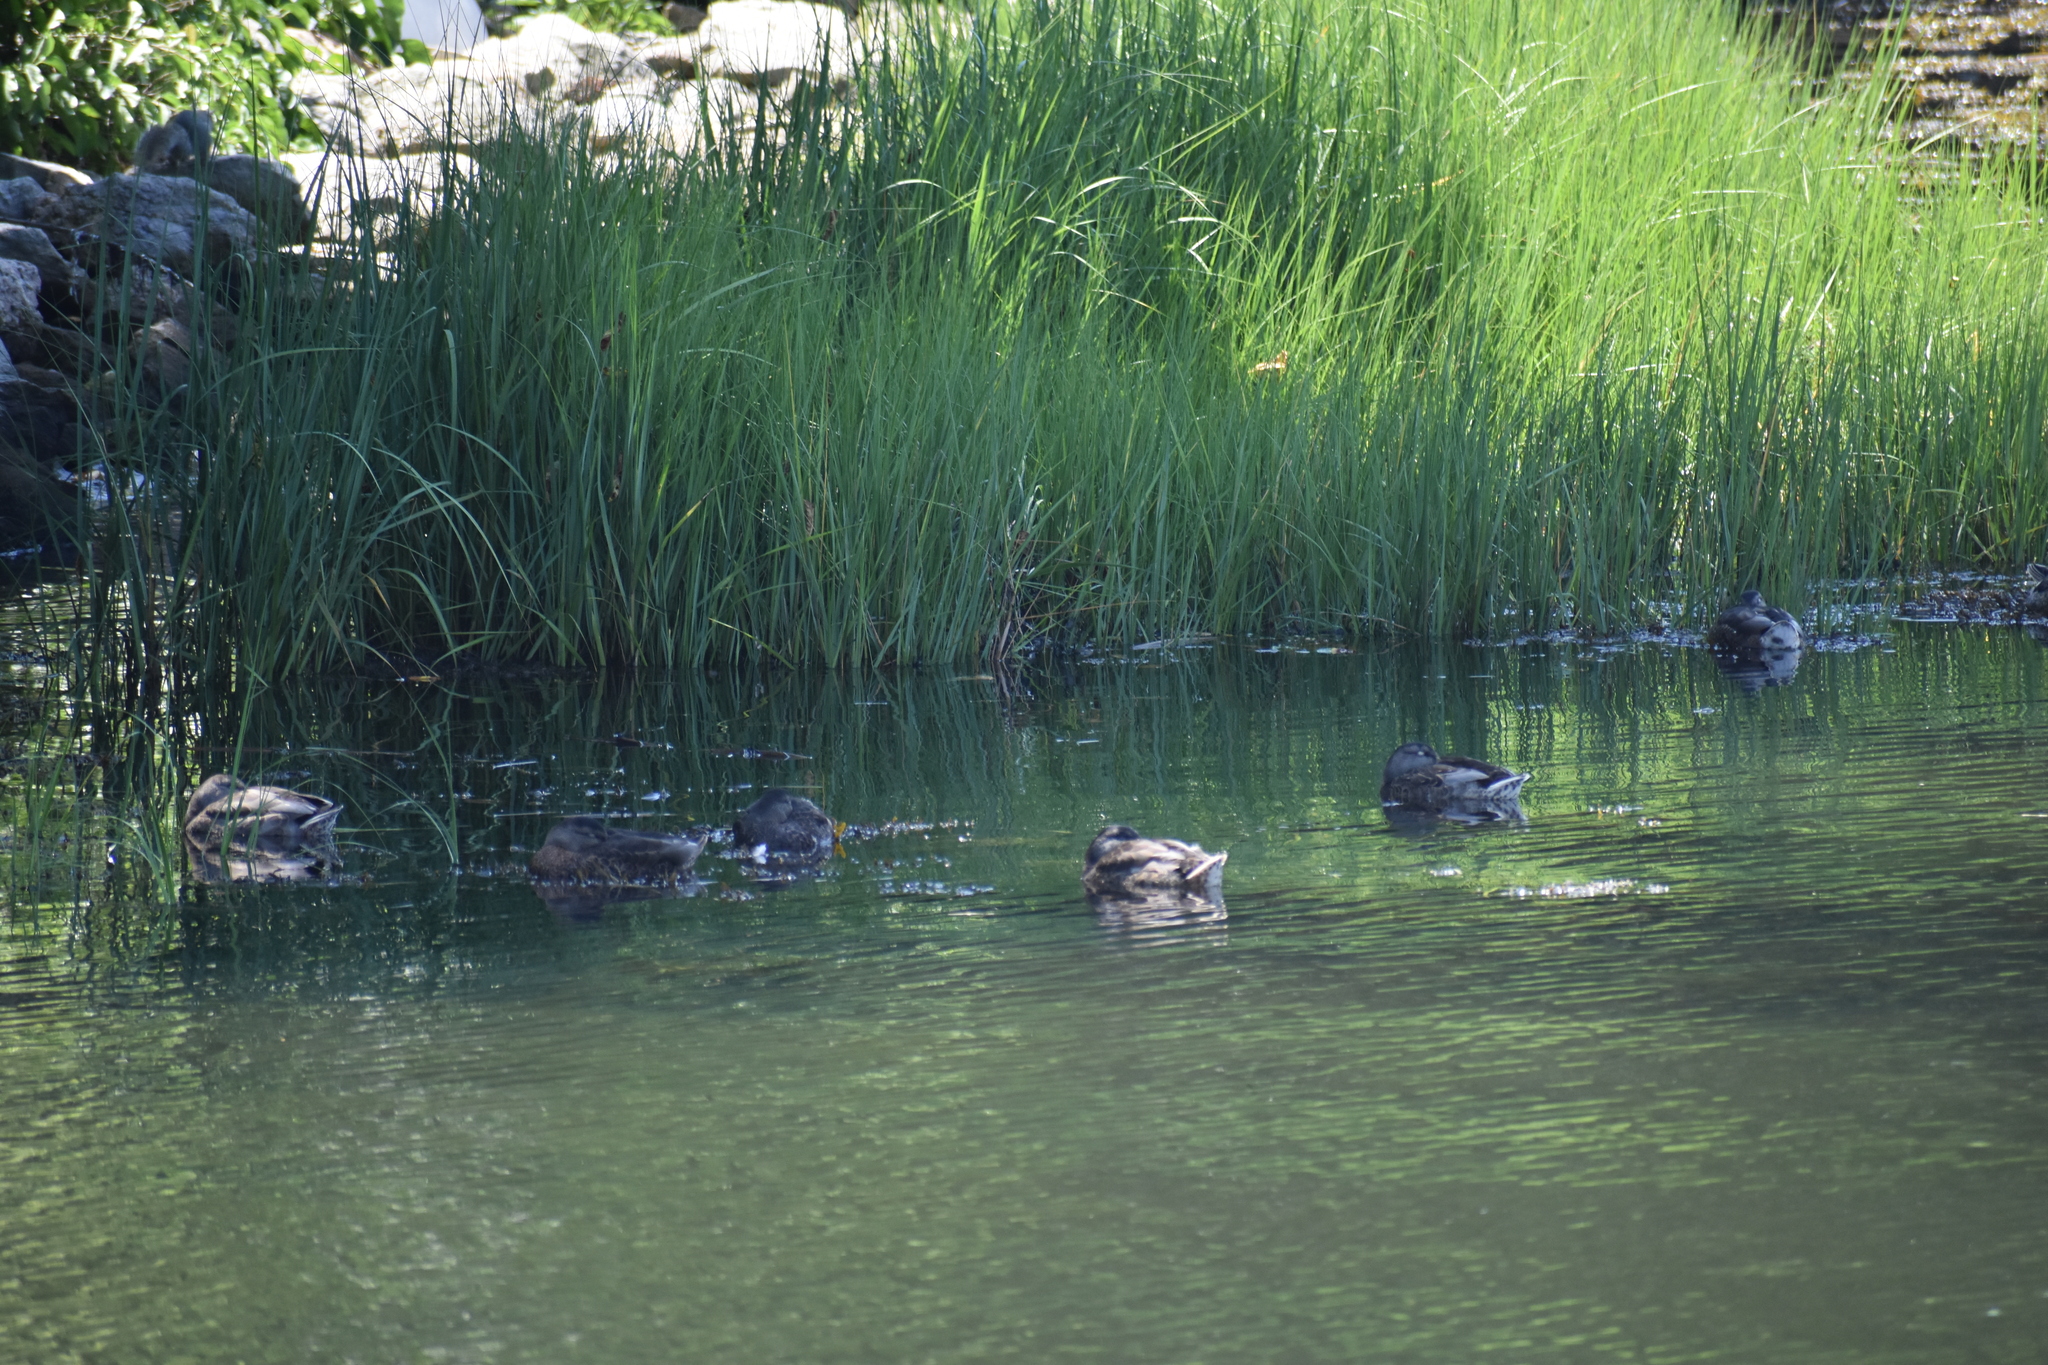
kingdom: Animalia
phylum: Chordata
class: Mammalia
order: Rodentia
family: Sciuridae
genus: Sciurus
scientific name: Sciurus carolinensis
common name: Eastern gray squirrel
